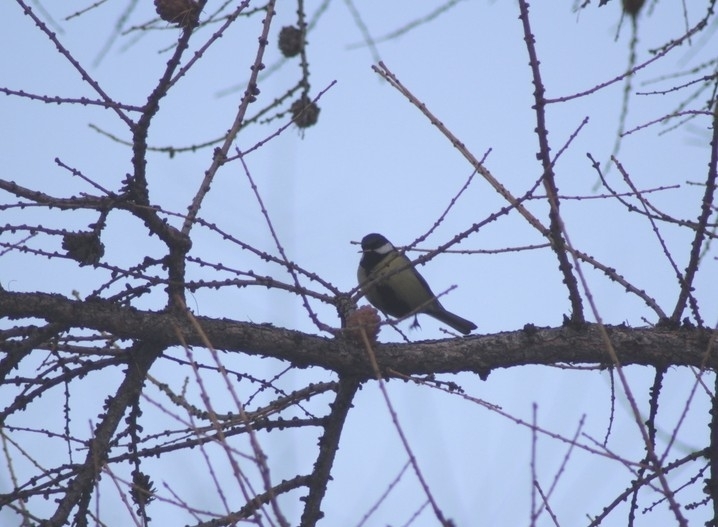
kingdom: Animalia
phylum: Chordata
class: Aves
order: Passeriformes
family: Paridae
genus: Parus
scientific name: Parus major
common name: Great tit
